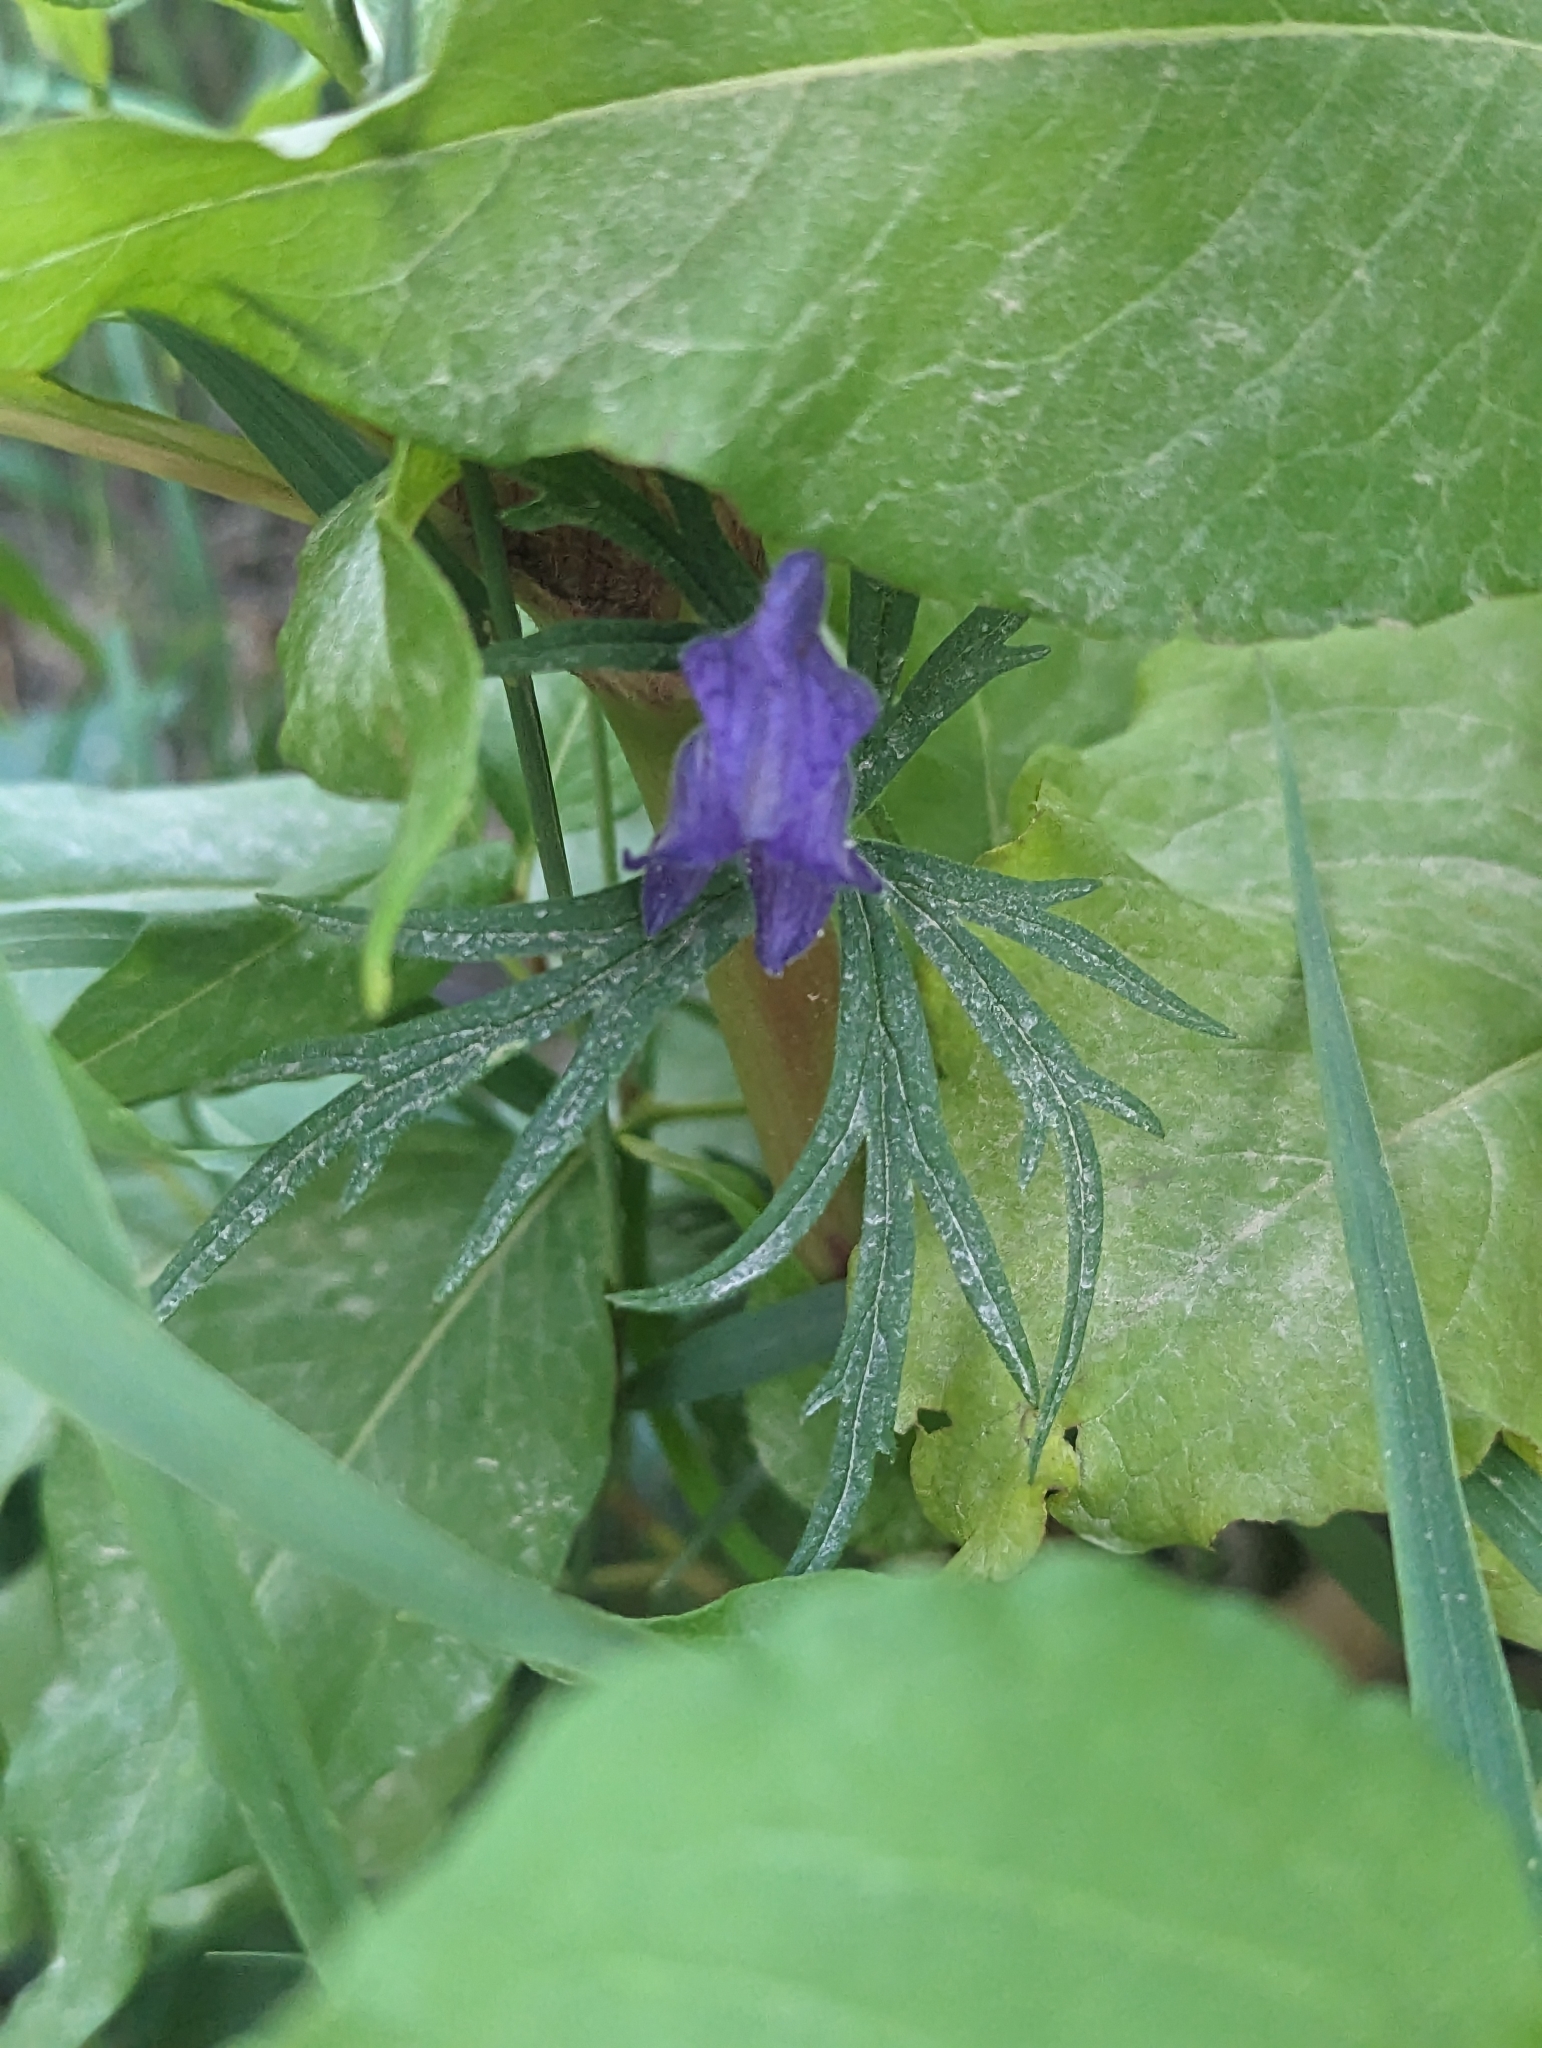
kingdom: Plantae
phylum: Tracheophyta
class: Magnoliopsida
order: Ranunculales
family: Ranunculaceae
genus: Aconitum
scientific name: Aconitum delphiniifolium
